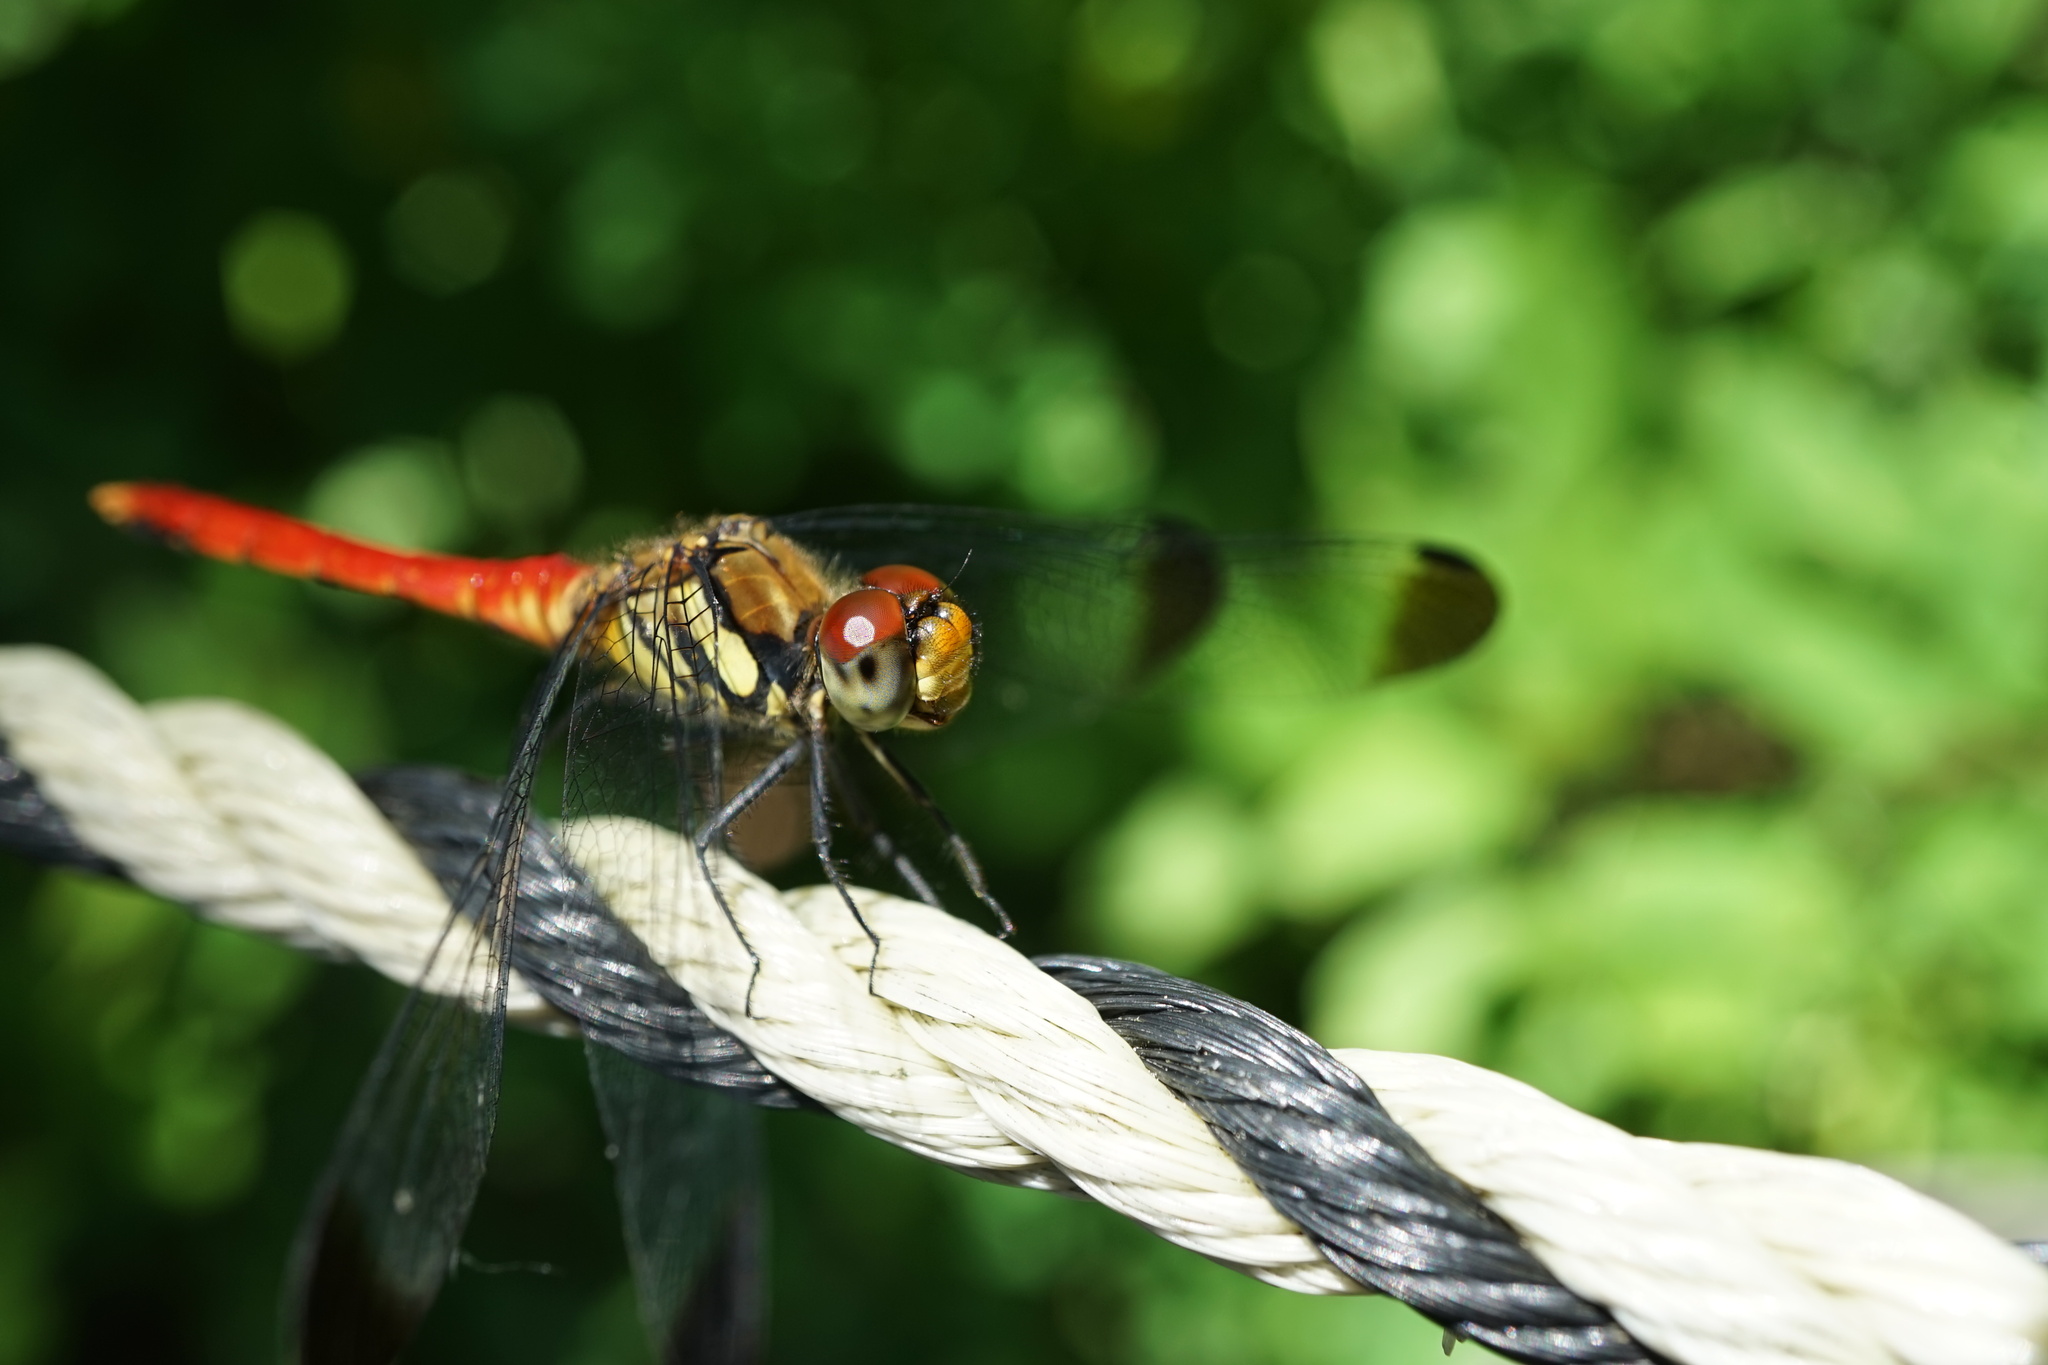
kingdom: Animalia
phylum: Arthropoda
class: Insecta
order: Odonata
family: Libellulidae
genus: Sympetrum
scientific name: Sympetrum risi
